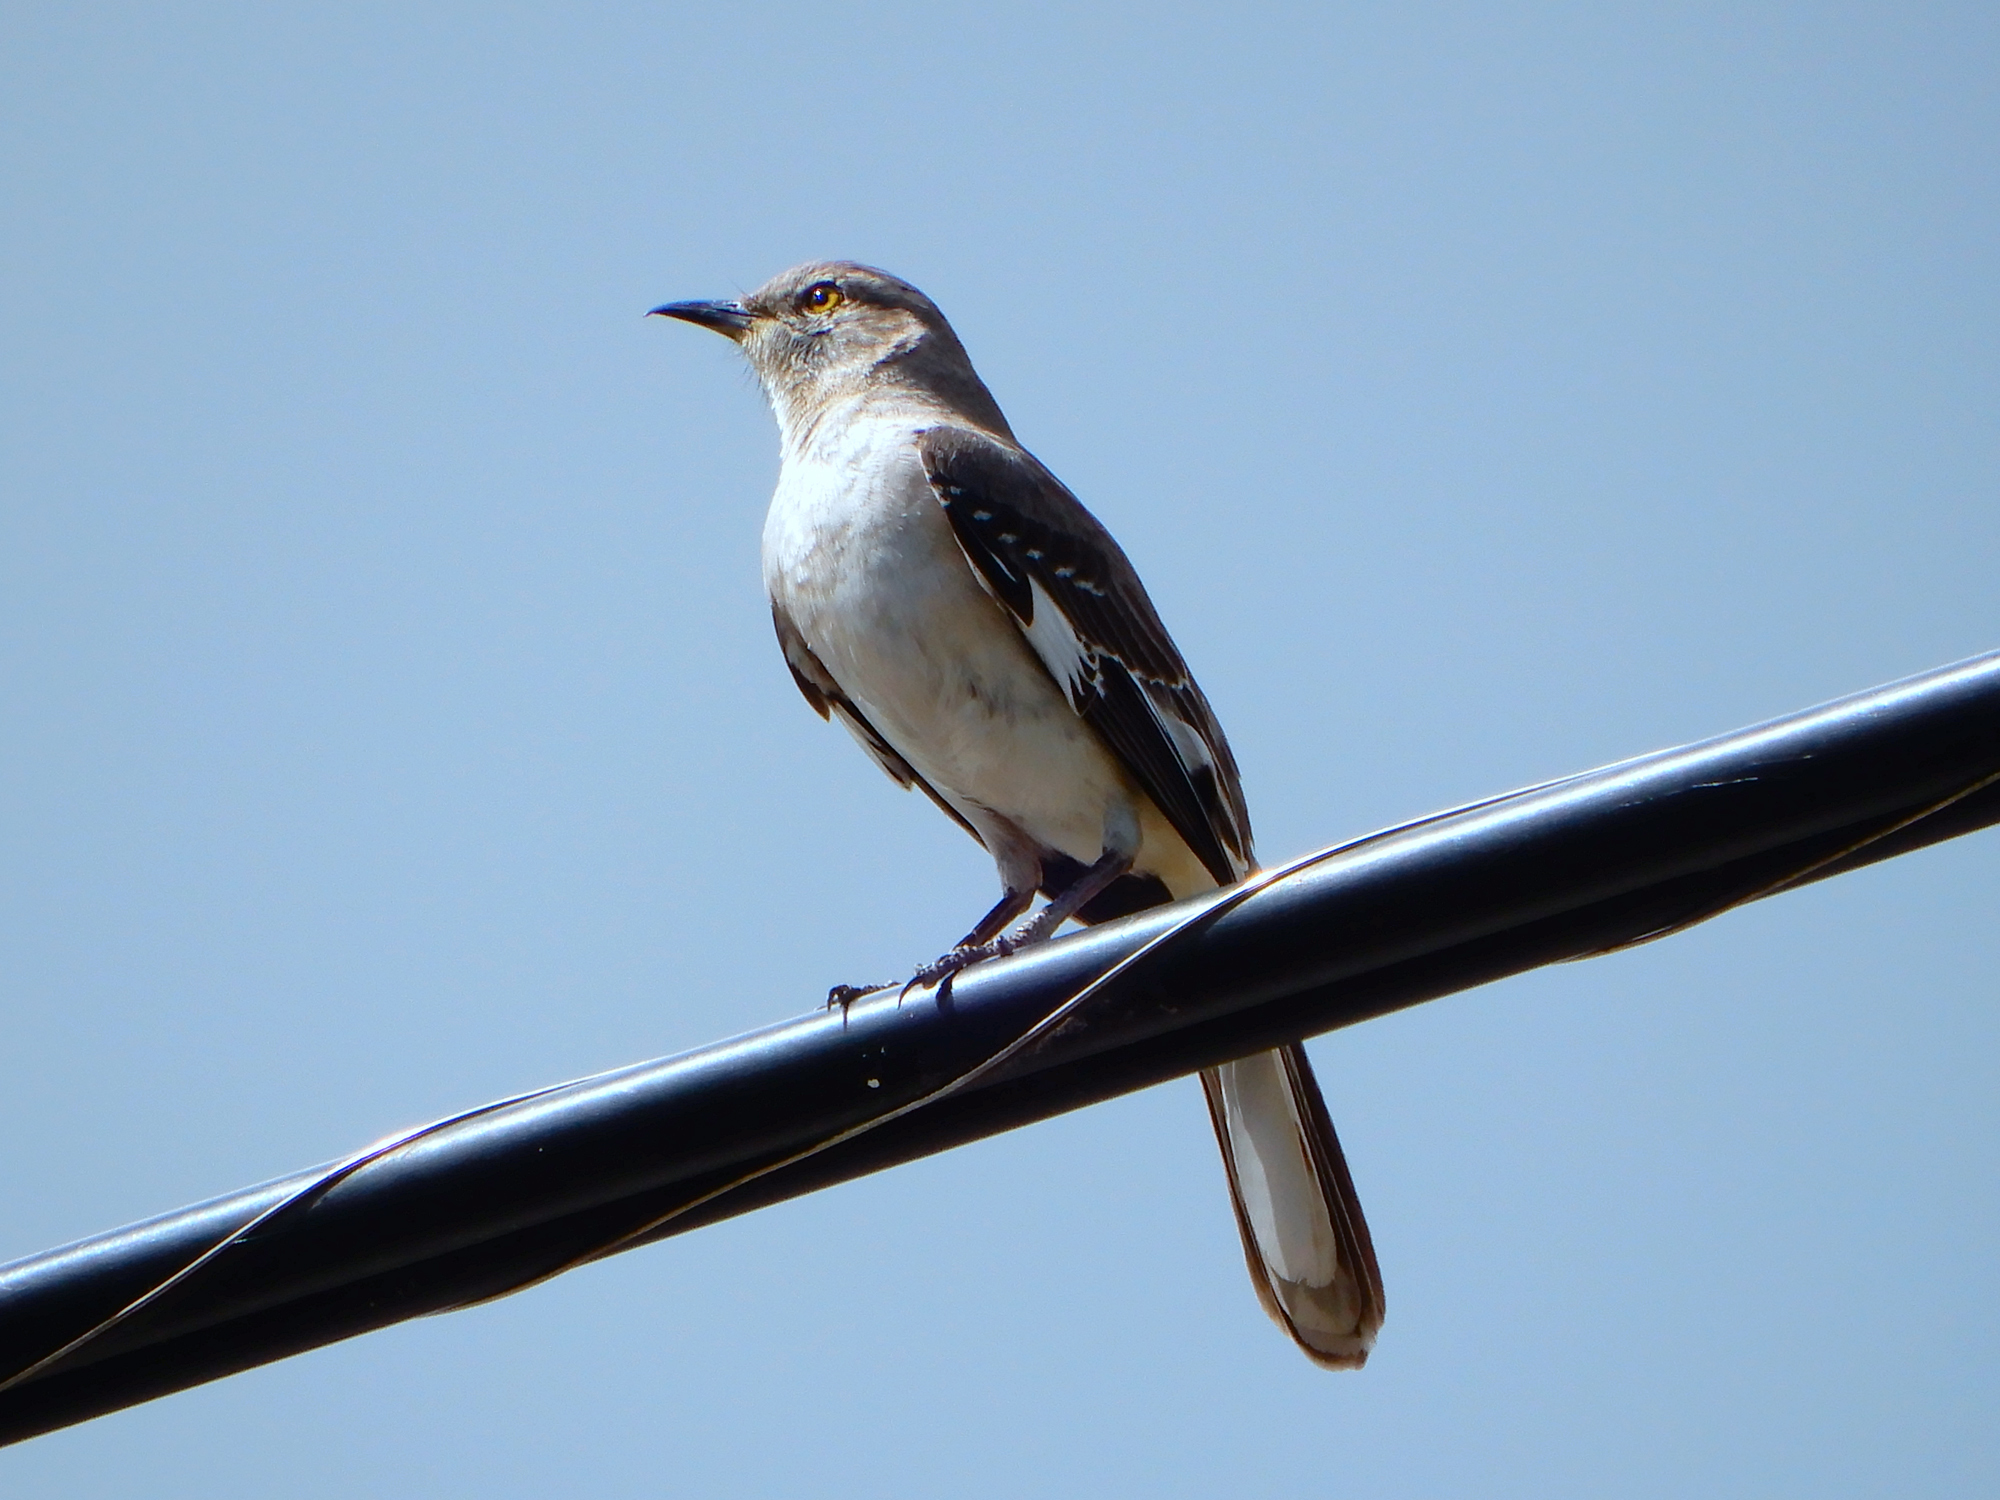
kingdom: Animalia
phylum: Chordata
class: Aves
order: Passeriformes
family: Mimidae
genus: Mimus
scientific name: Mimus polyglottos
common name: Northern mockingbird
